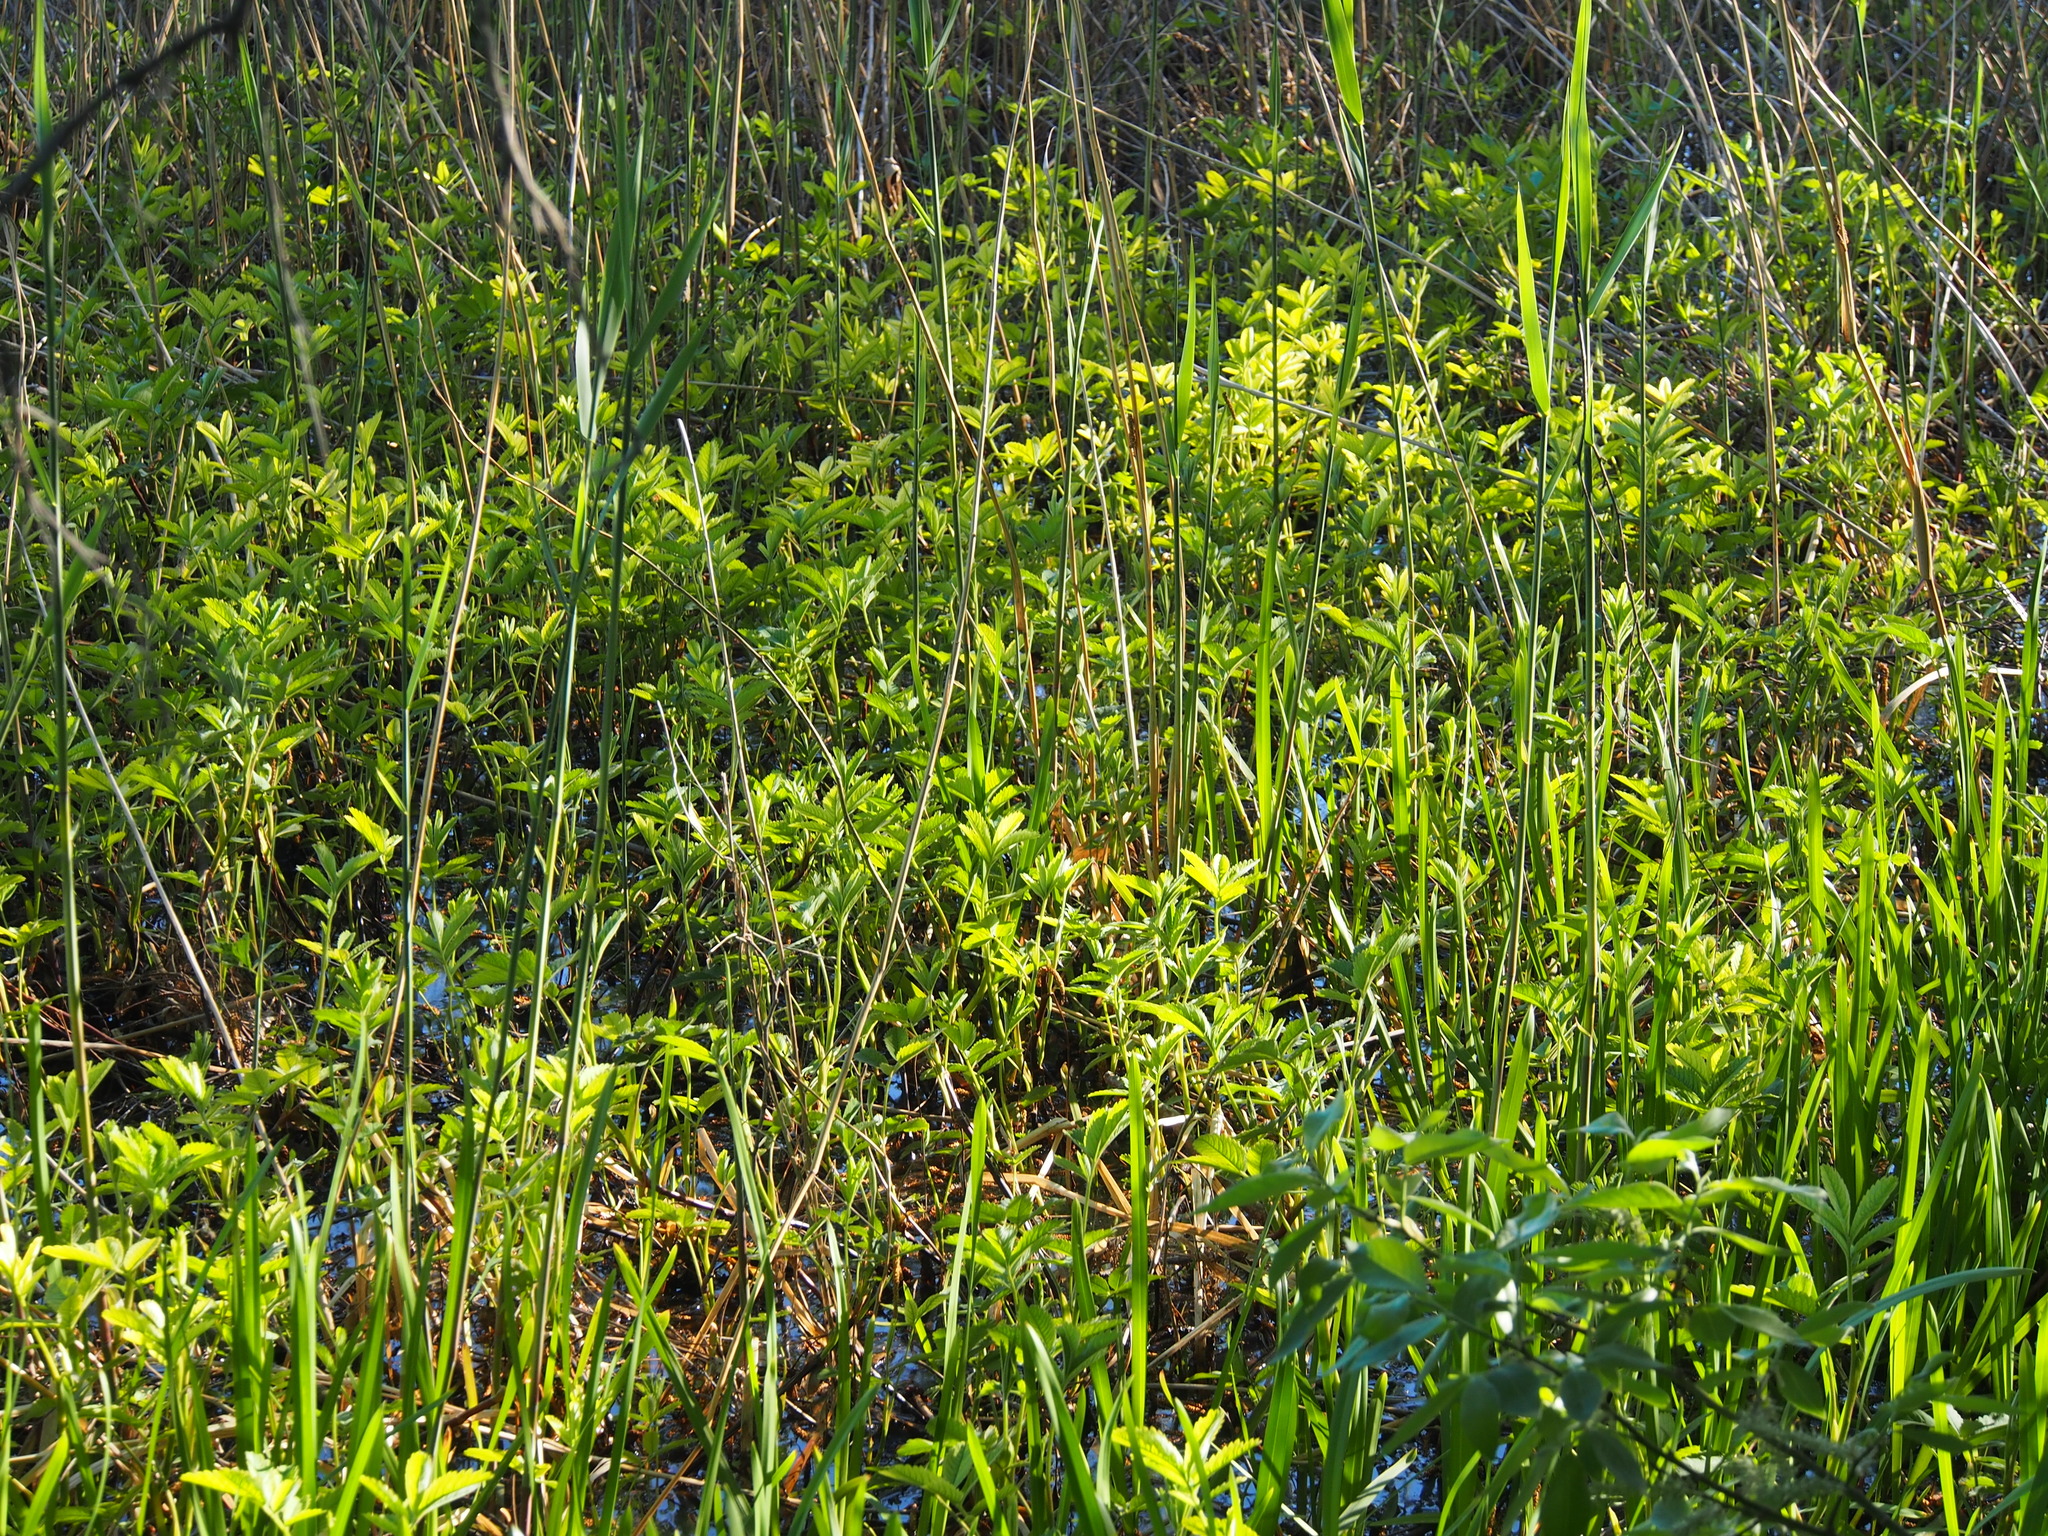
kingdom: Plantae
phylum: Tracheophyta
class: Magnoliopsida
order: Rosales
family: Rosaceae
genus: Comarum
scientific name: Comarum palustre
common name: Marsh cinquefoil
